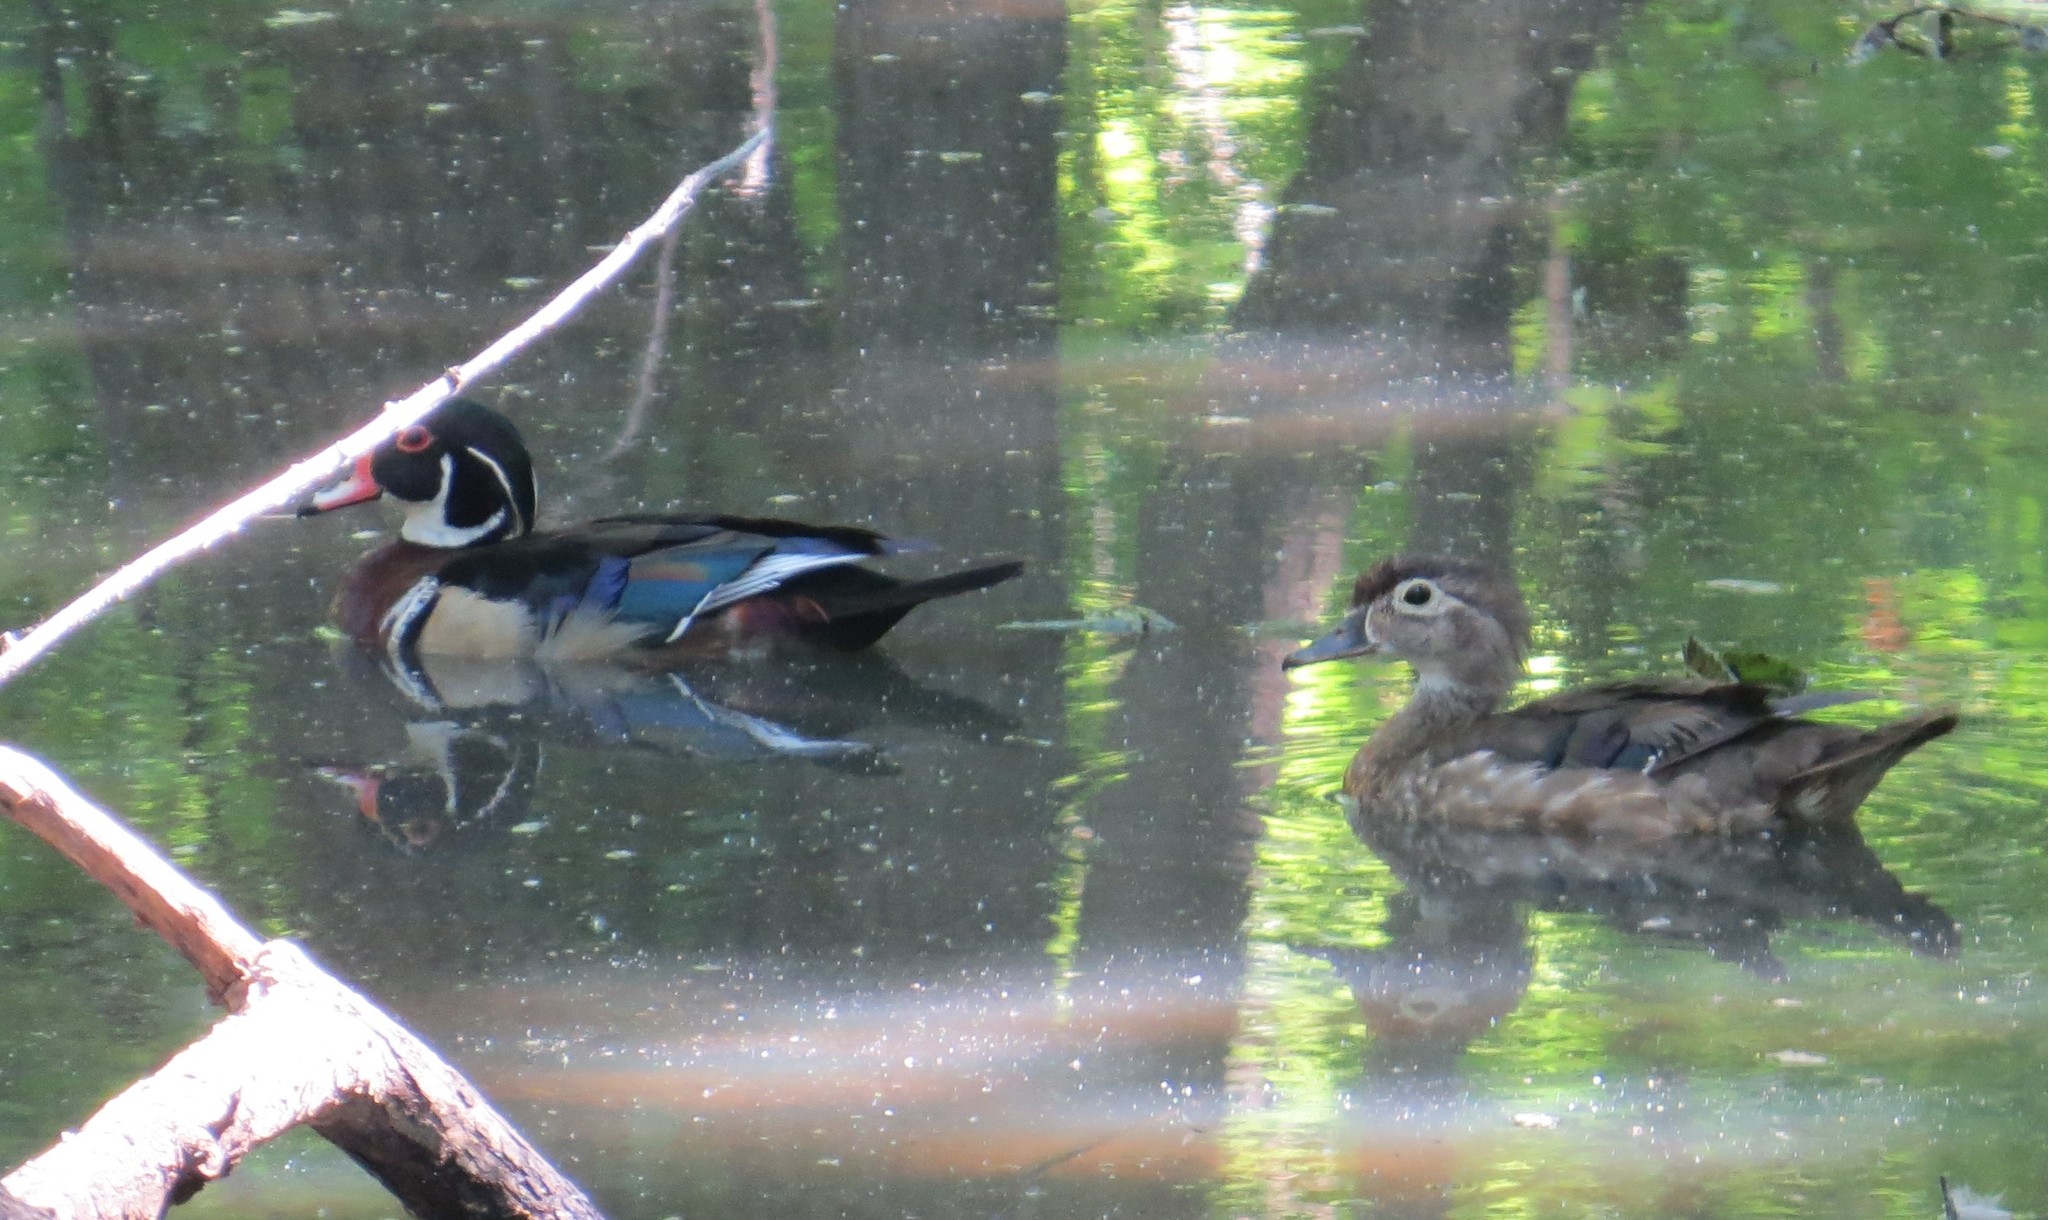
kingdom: Animalia
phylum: Chordata
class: Aves
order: Anseriformes
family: Anatidae
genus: Aix
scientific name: Aix sponsa
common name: Wood duck
